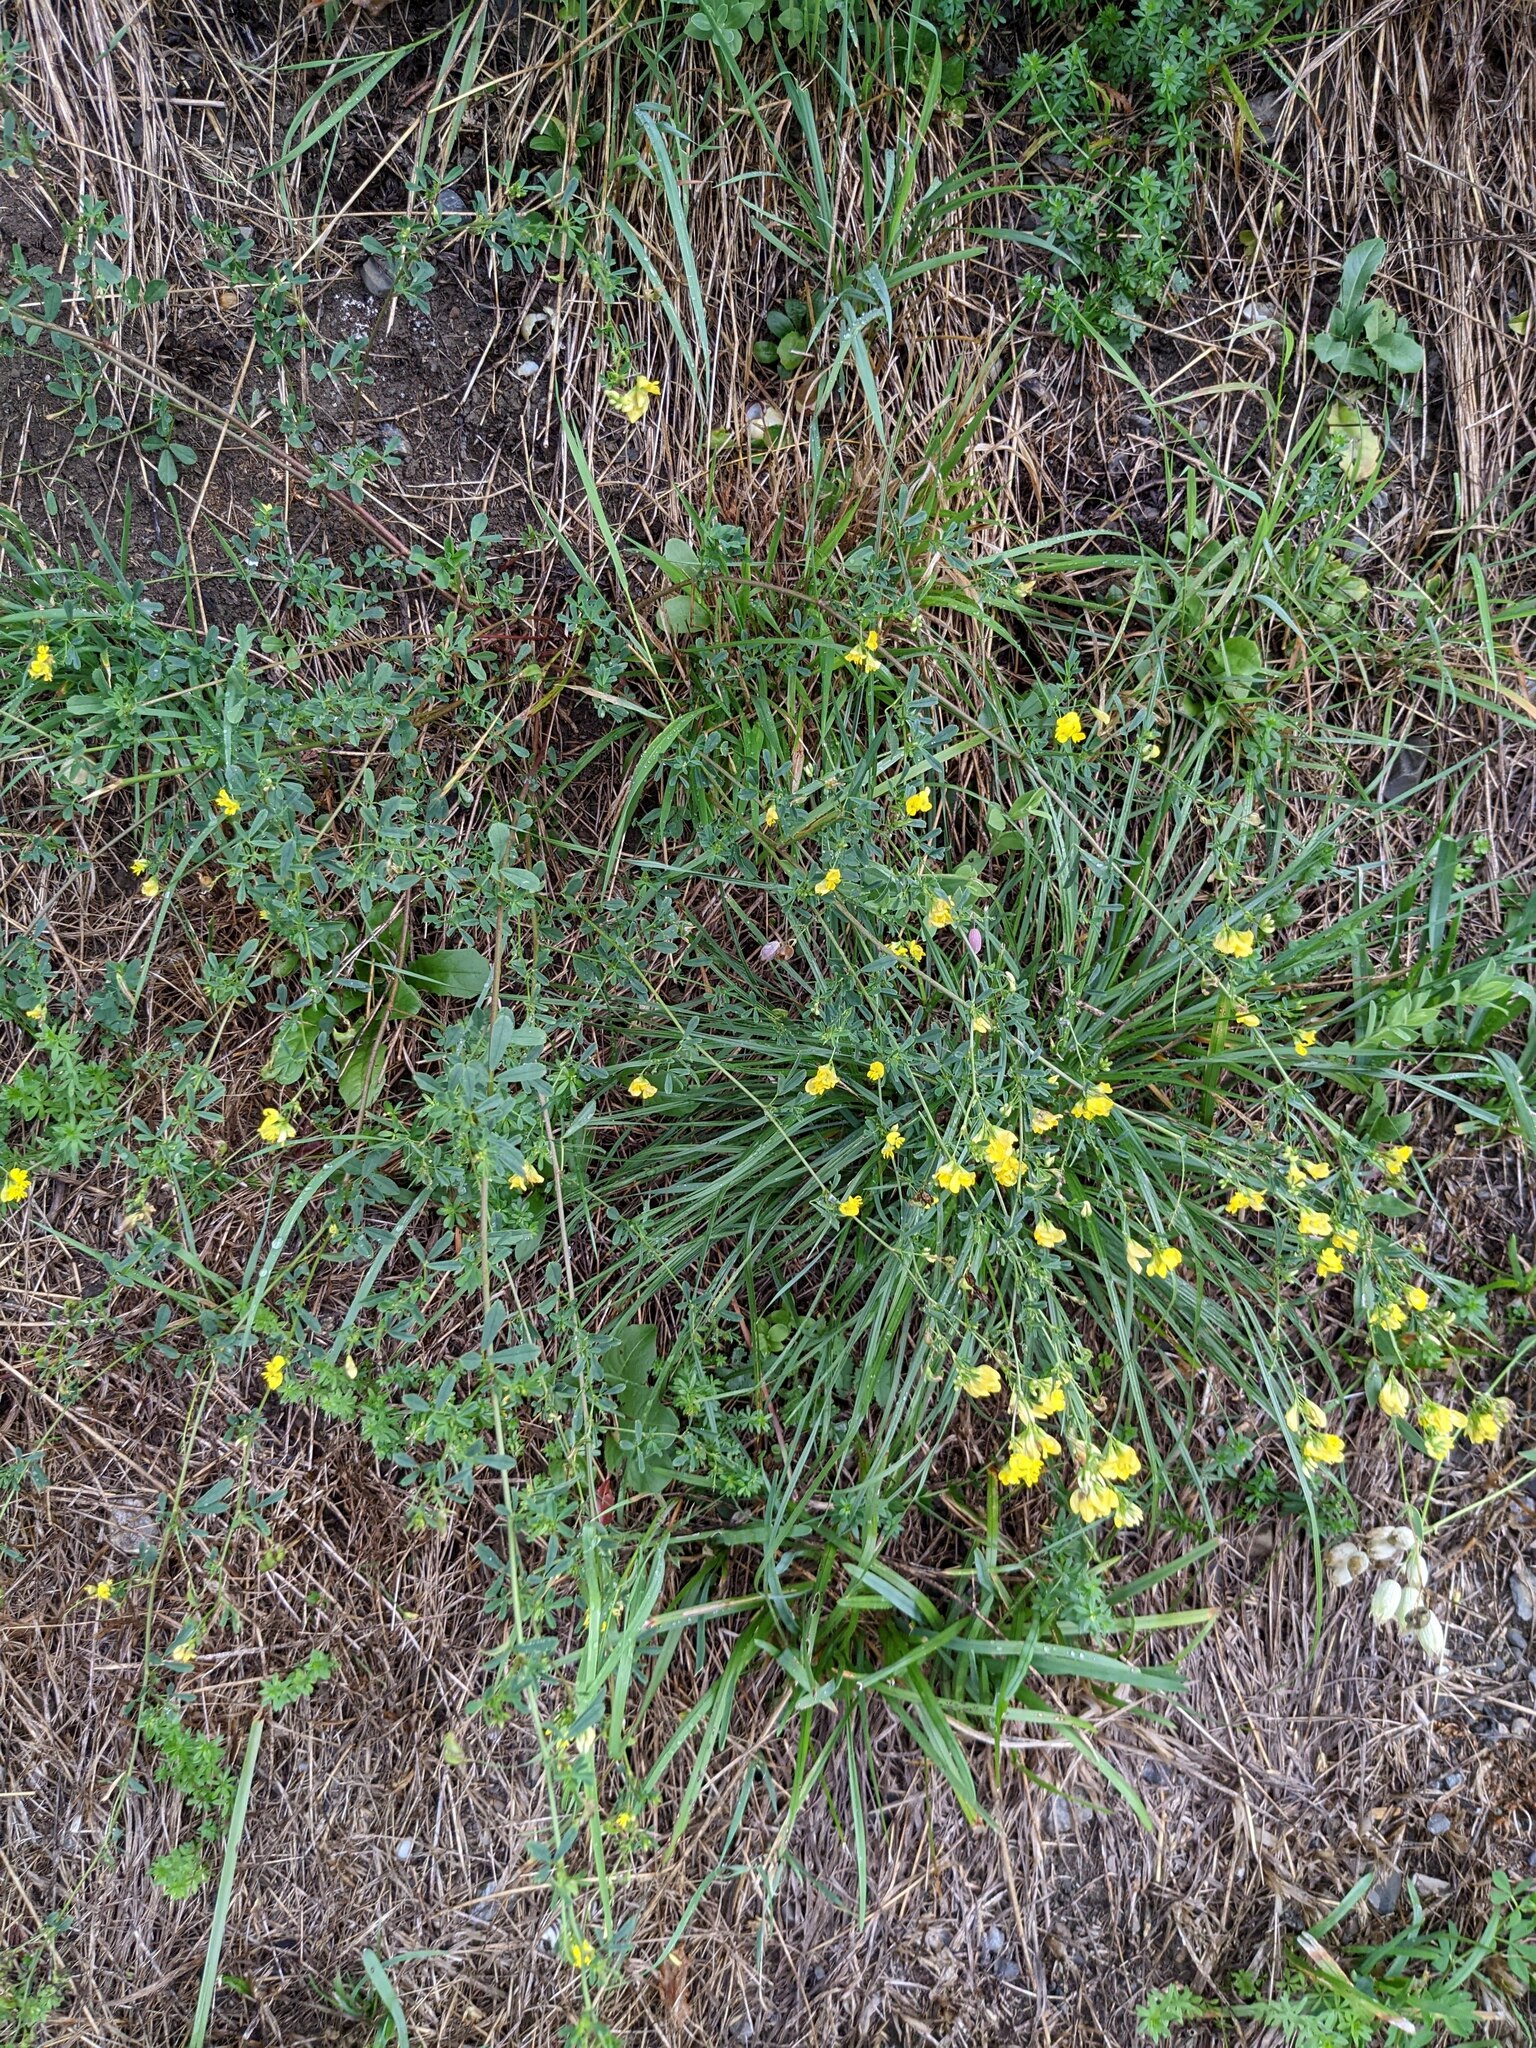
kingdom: Plantae
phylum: Tracheophyta
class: Magnoliopsida
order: Fabales
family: Fabaceae
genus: Medicago
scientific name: Medicago falcata
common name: Sickle medick
